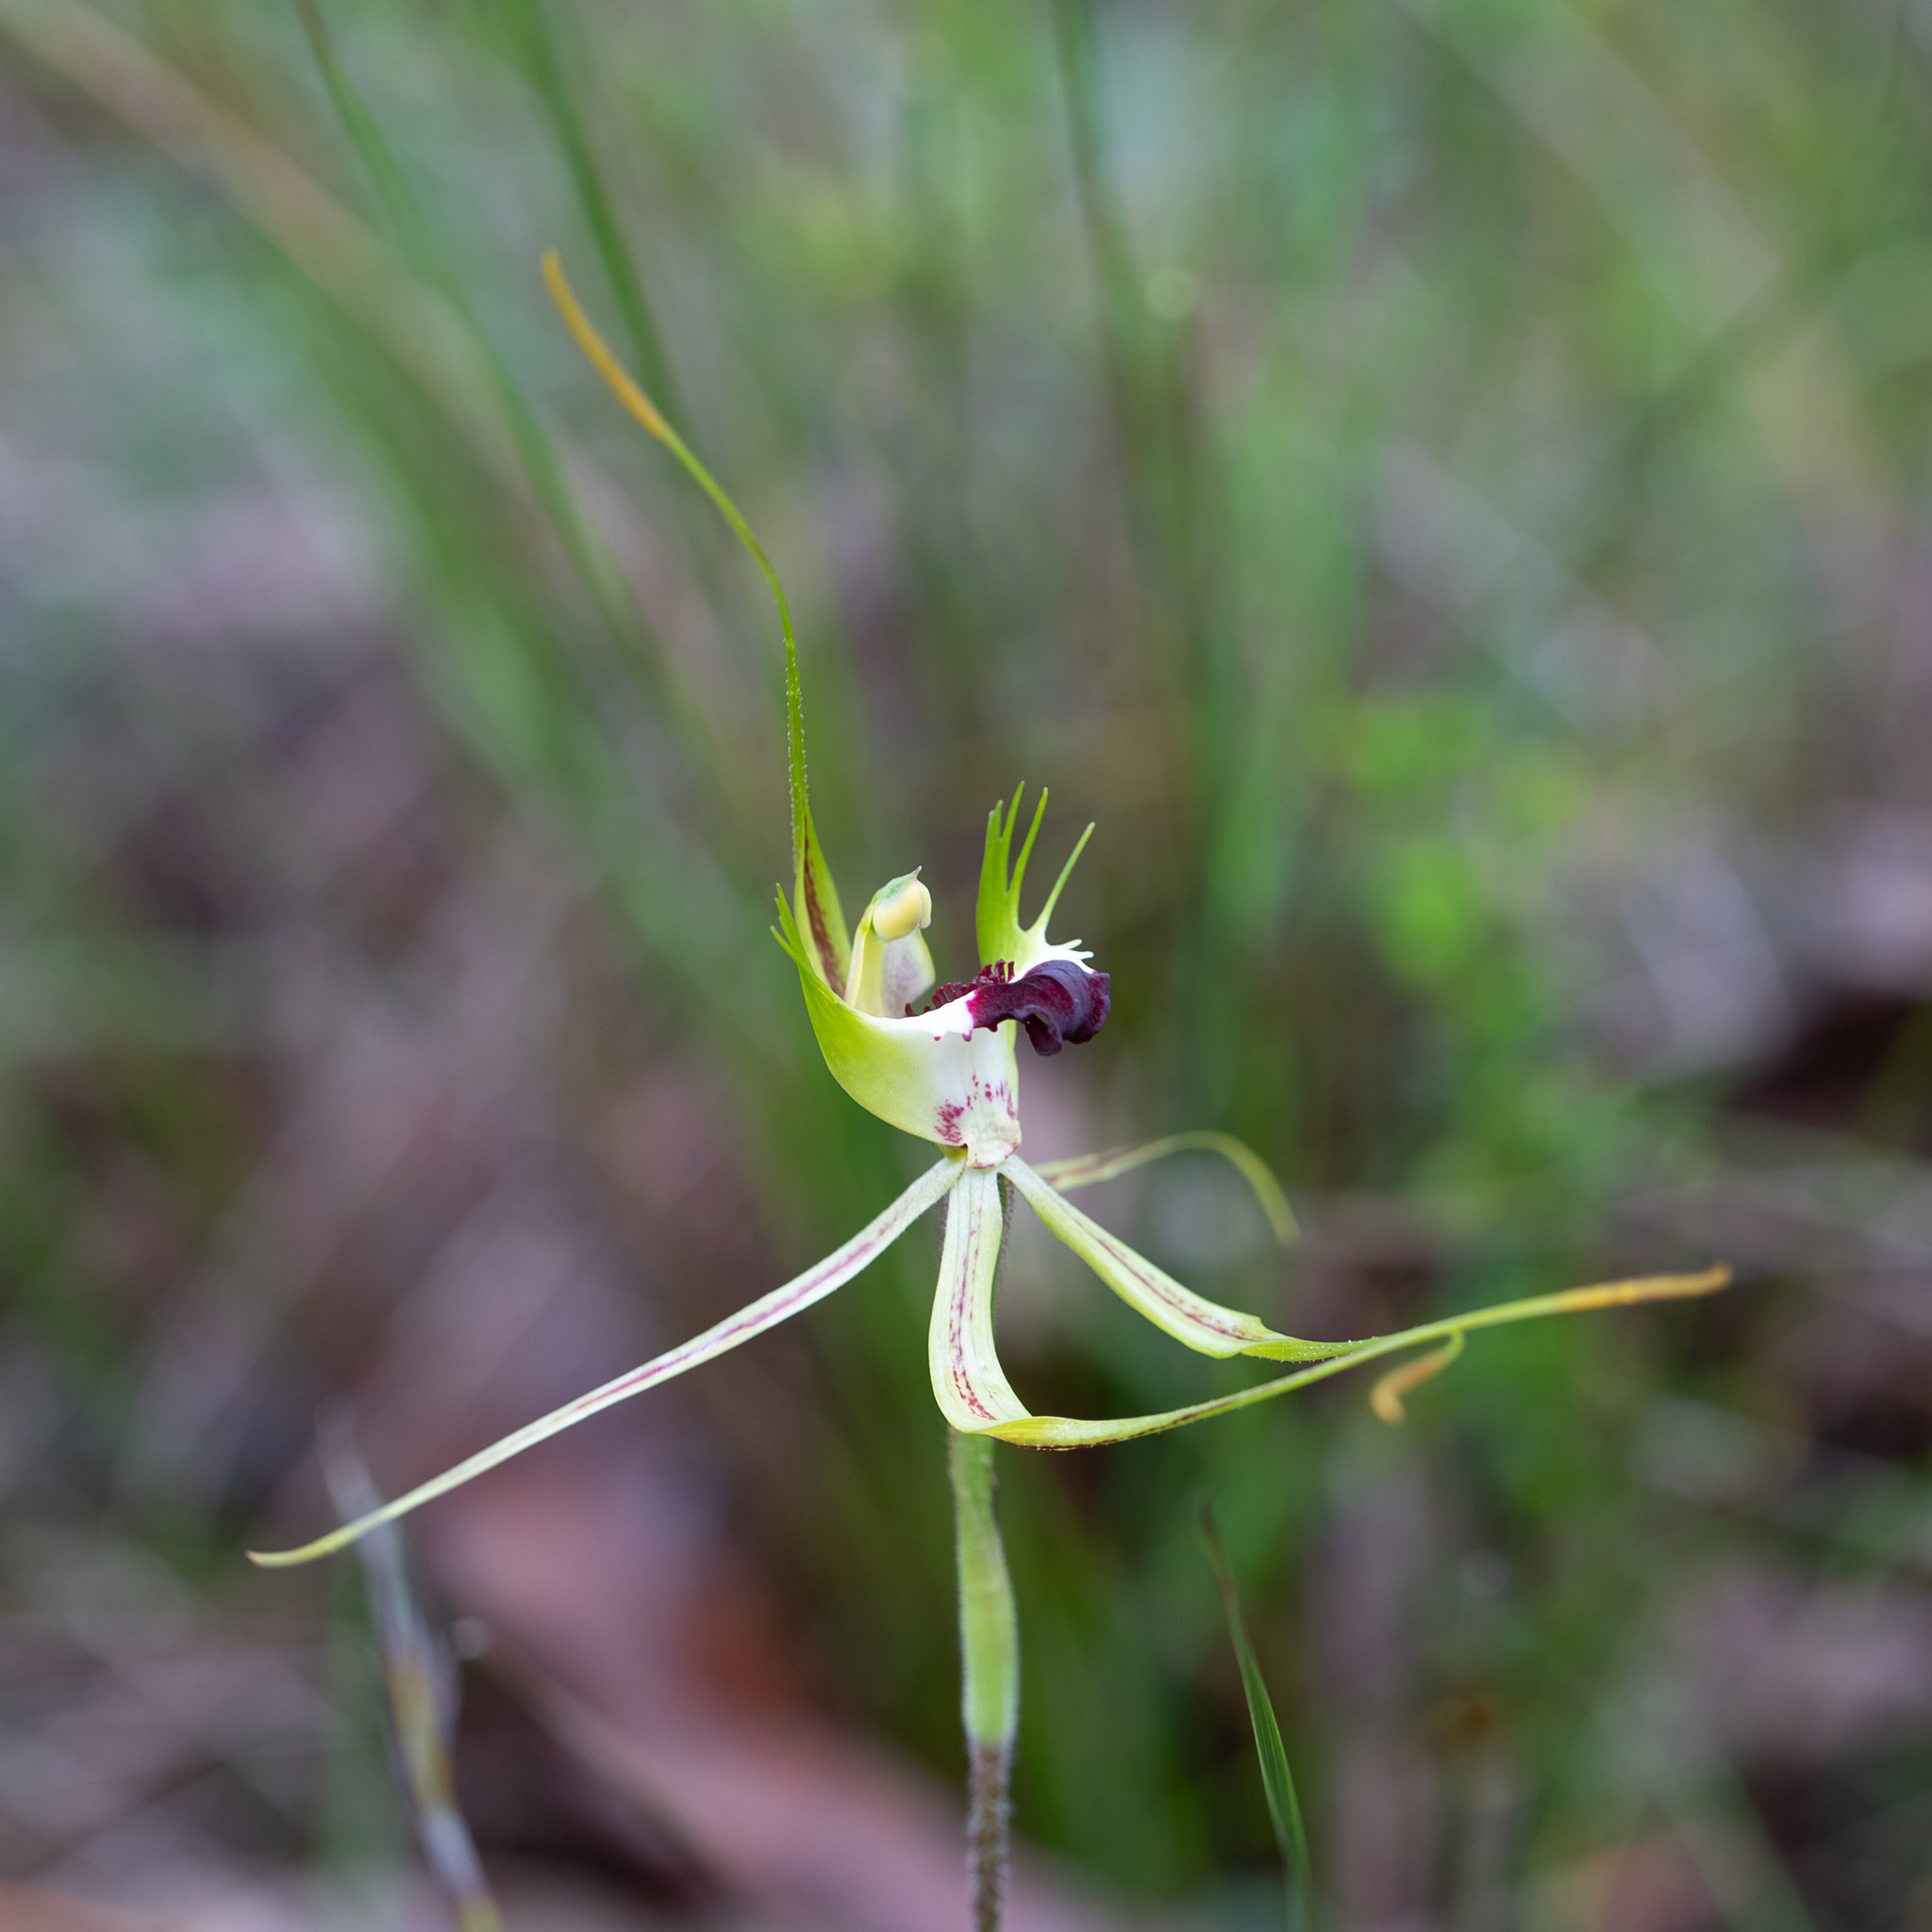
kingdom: Plantae
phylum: Tracheophyta
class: Liliopsida
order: Asparagales
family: Orchidaceae
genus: Caladenia
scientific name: Caladenia tentaculata
